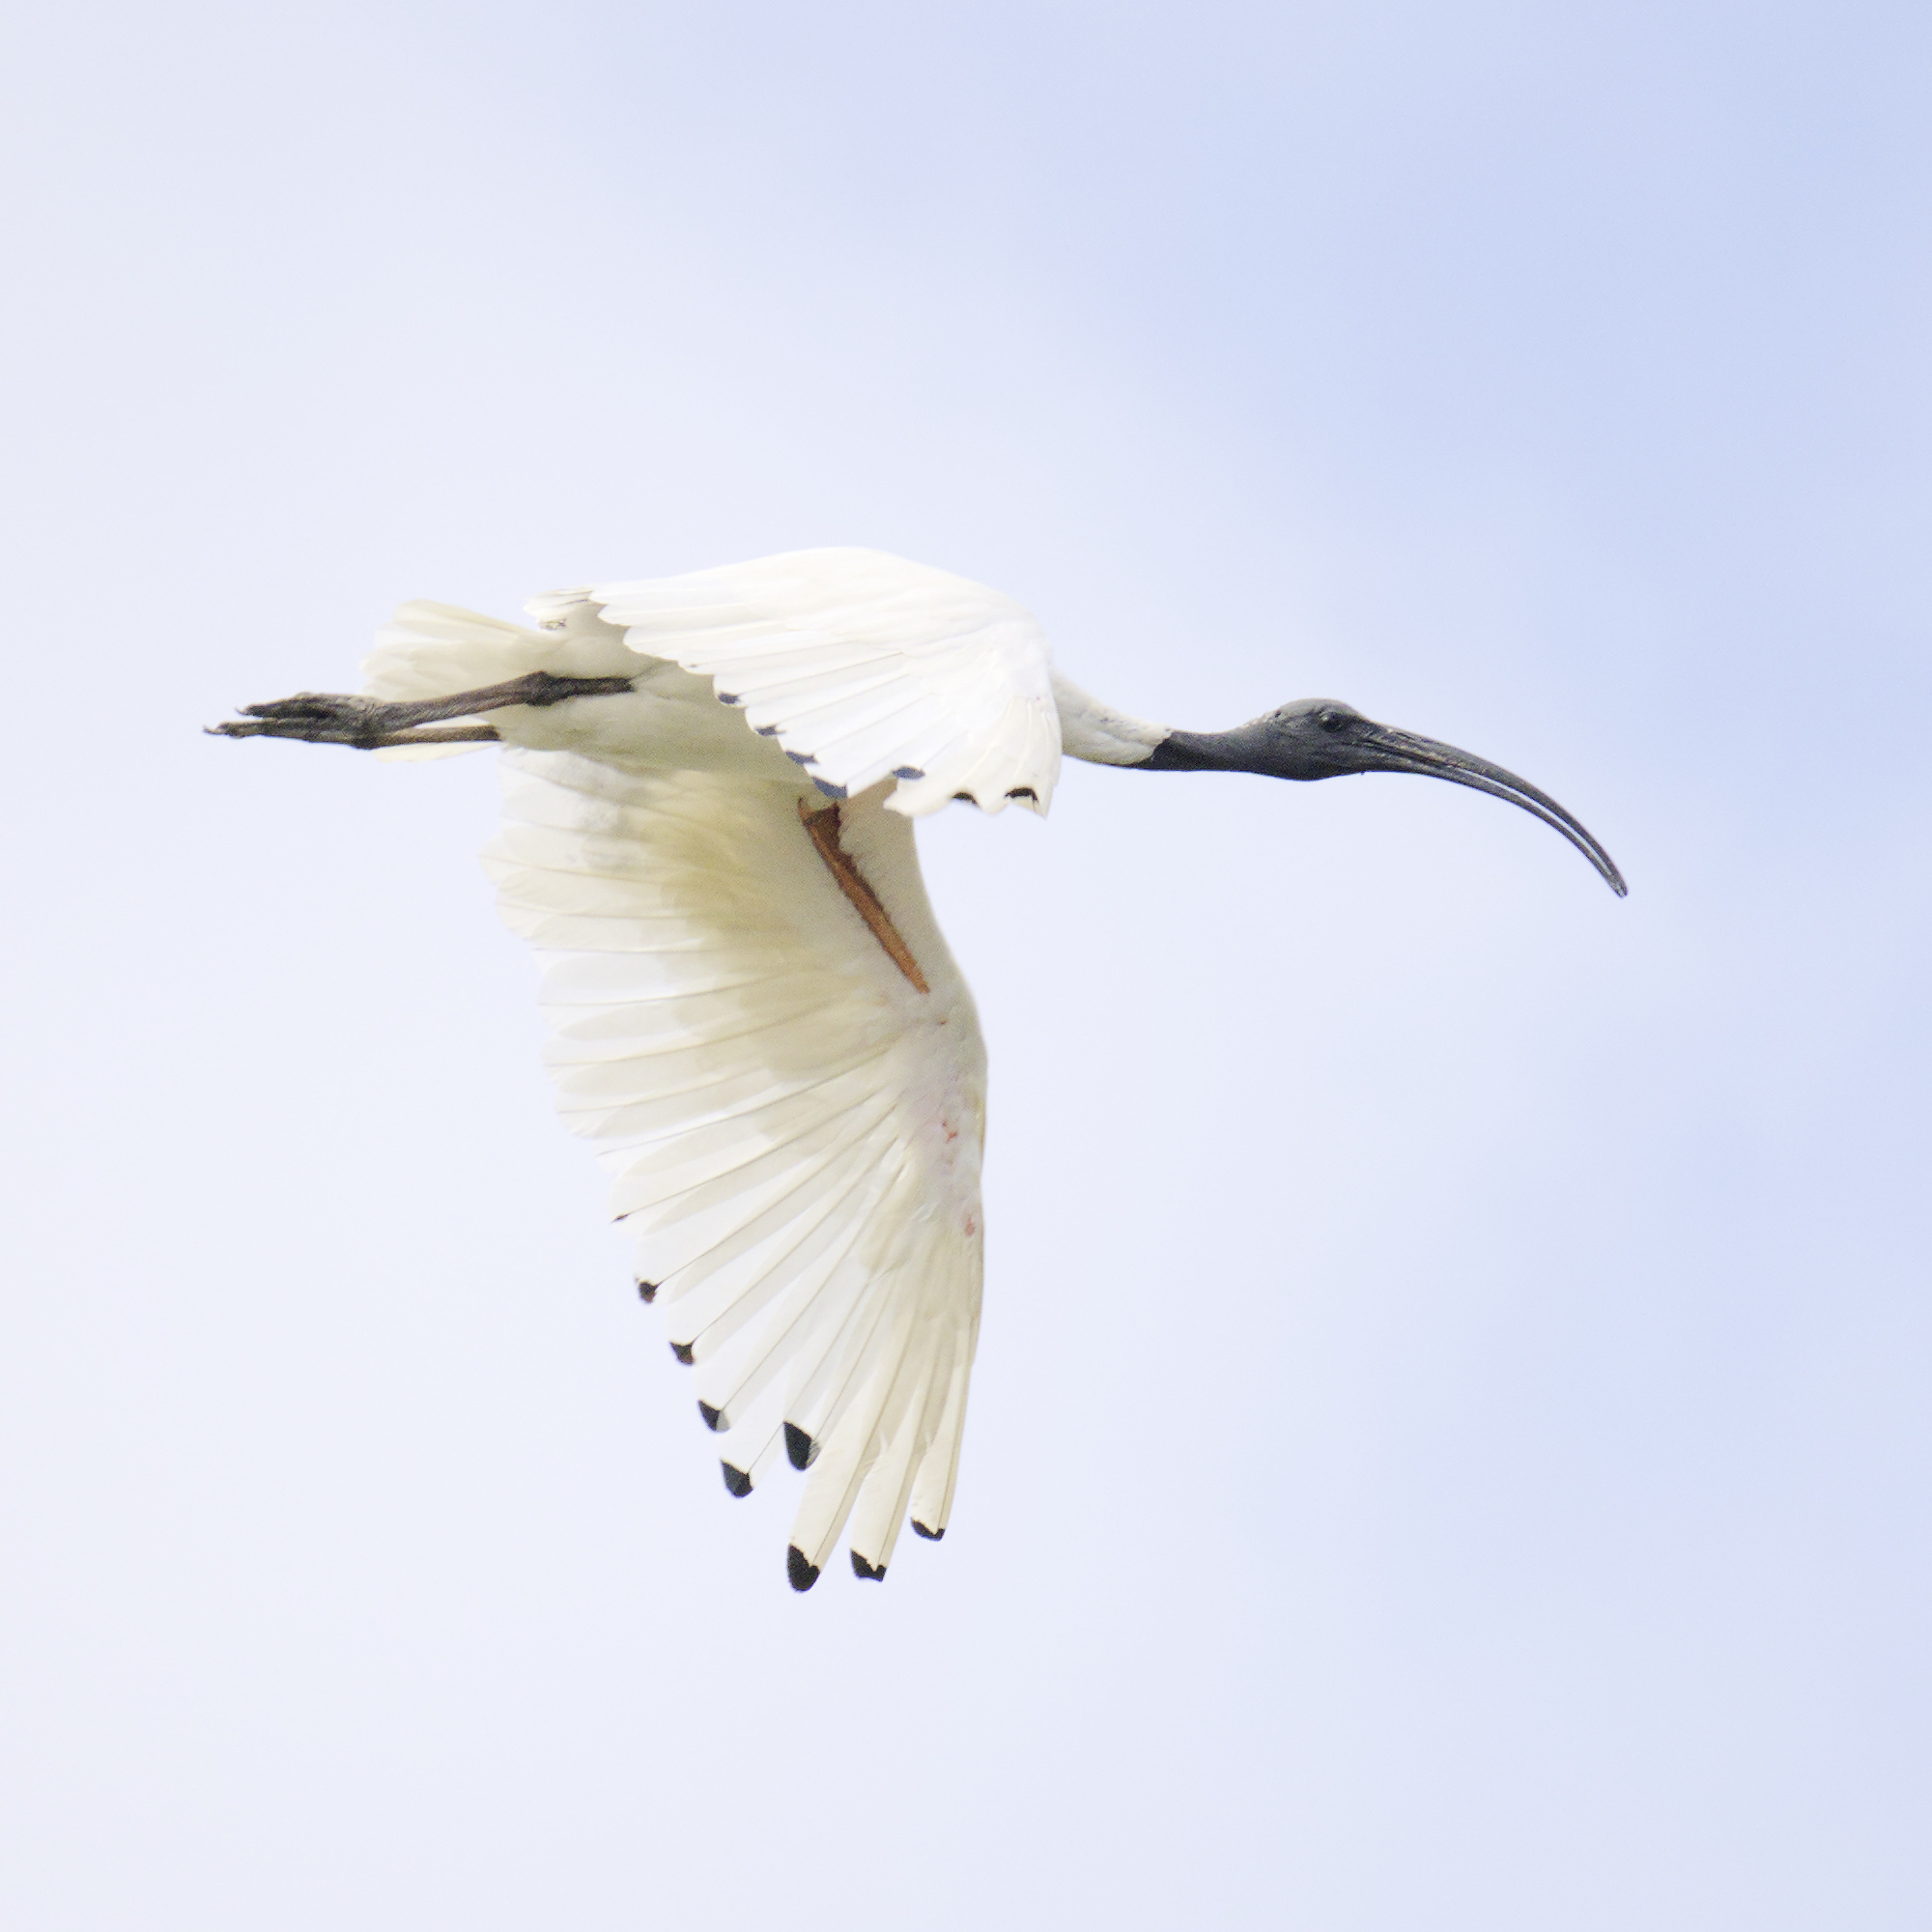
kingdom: Animalia
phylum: Chordata
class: Aves
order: Pelecaniformes
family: Threskiornithidae
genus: Threskiornis
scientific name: Threskiornis molucca
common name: Australian white ibis
